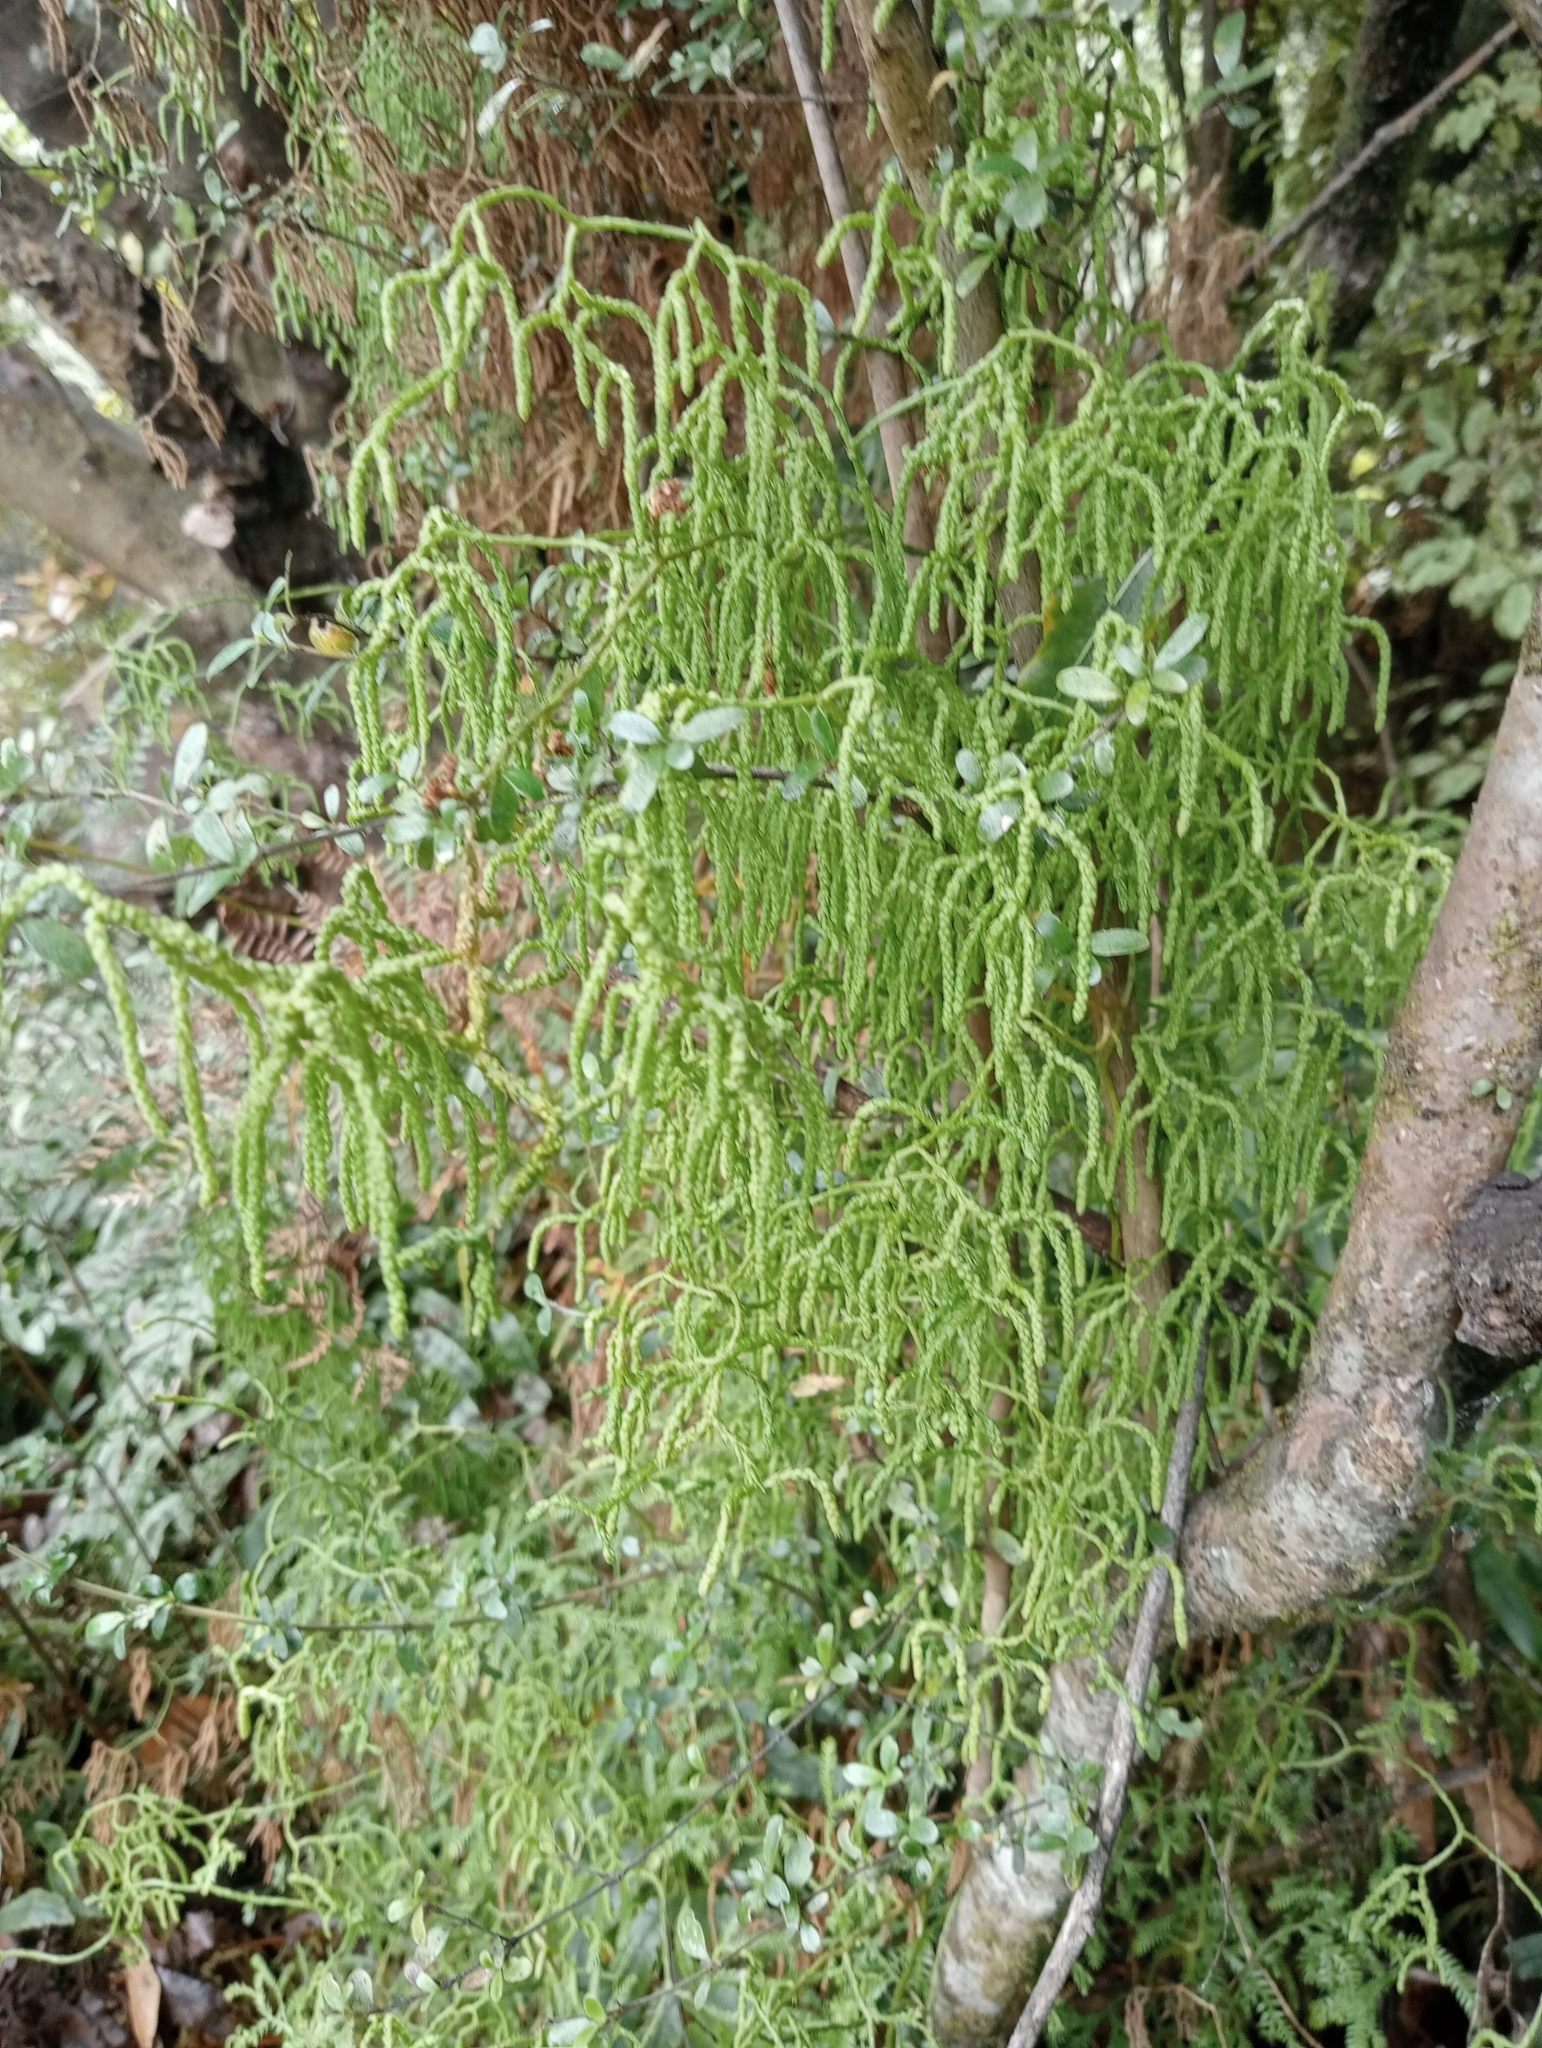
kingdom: Plantae
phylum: Tracheophyta
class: Lycopodiopsida
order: Lycopodiales
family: Lycopodiaceae
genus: Lycopodium
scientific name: Lycopodium volubile
